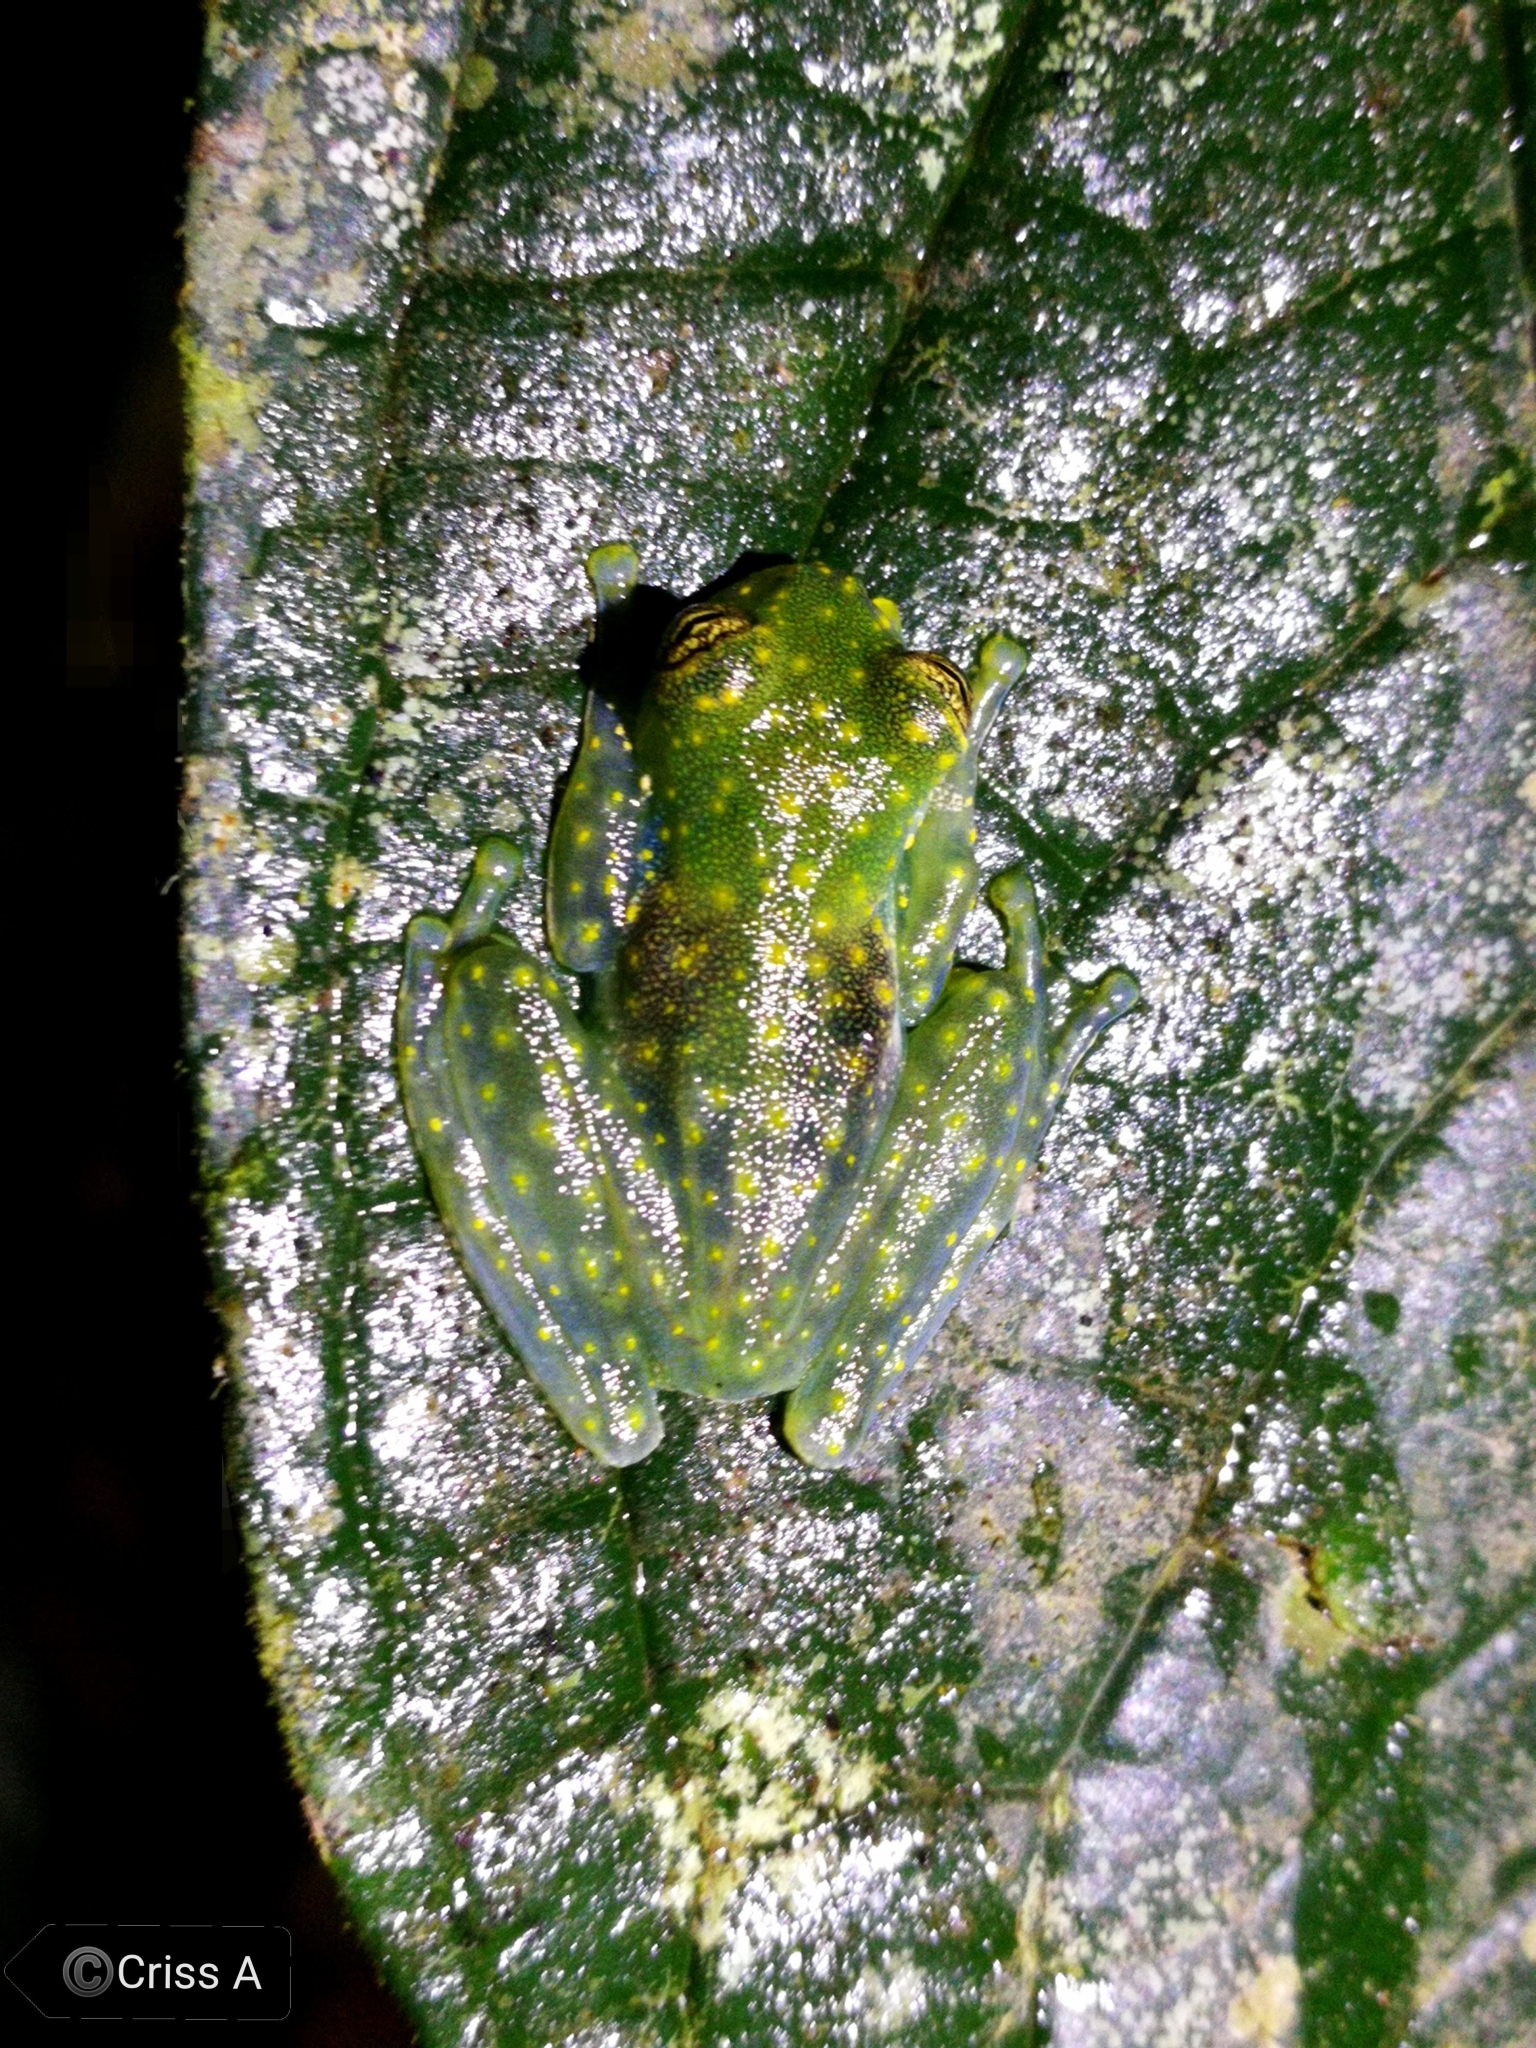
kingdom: Animalia
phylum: Chordata
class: Amphibia
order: Anura
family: Centrolenidae
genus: Sachatamia
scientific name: Sachatamia albomaculata
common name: Rana de cristal de cascada
